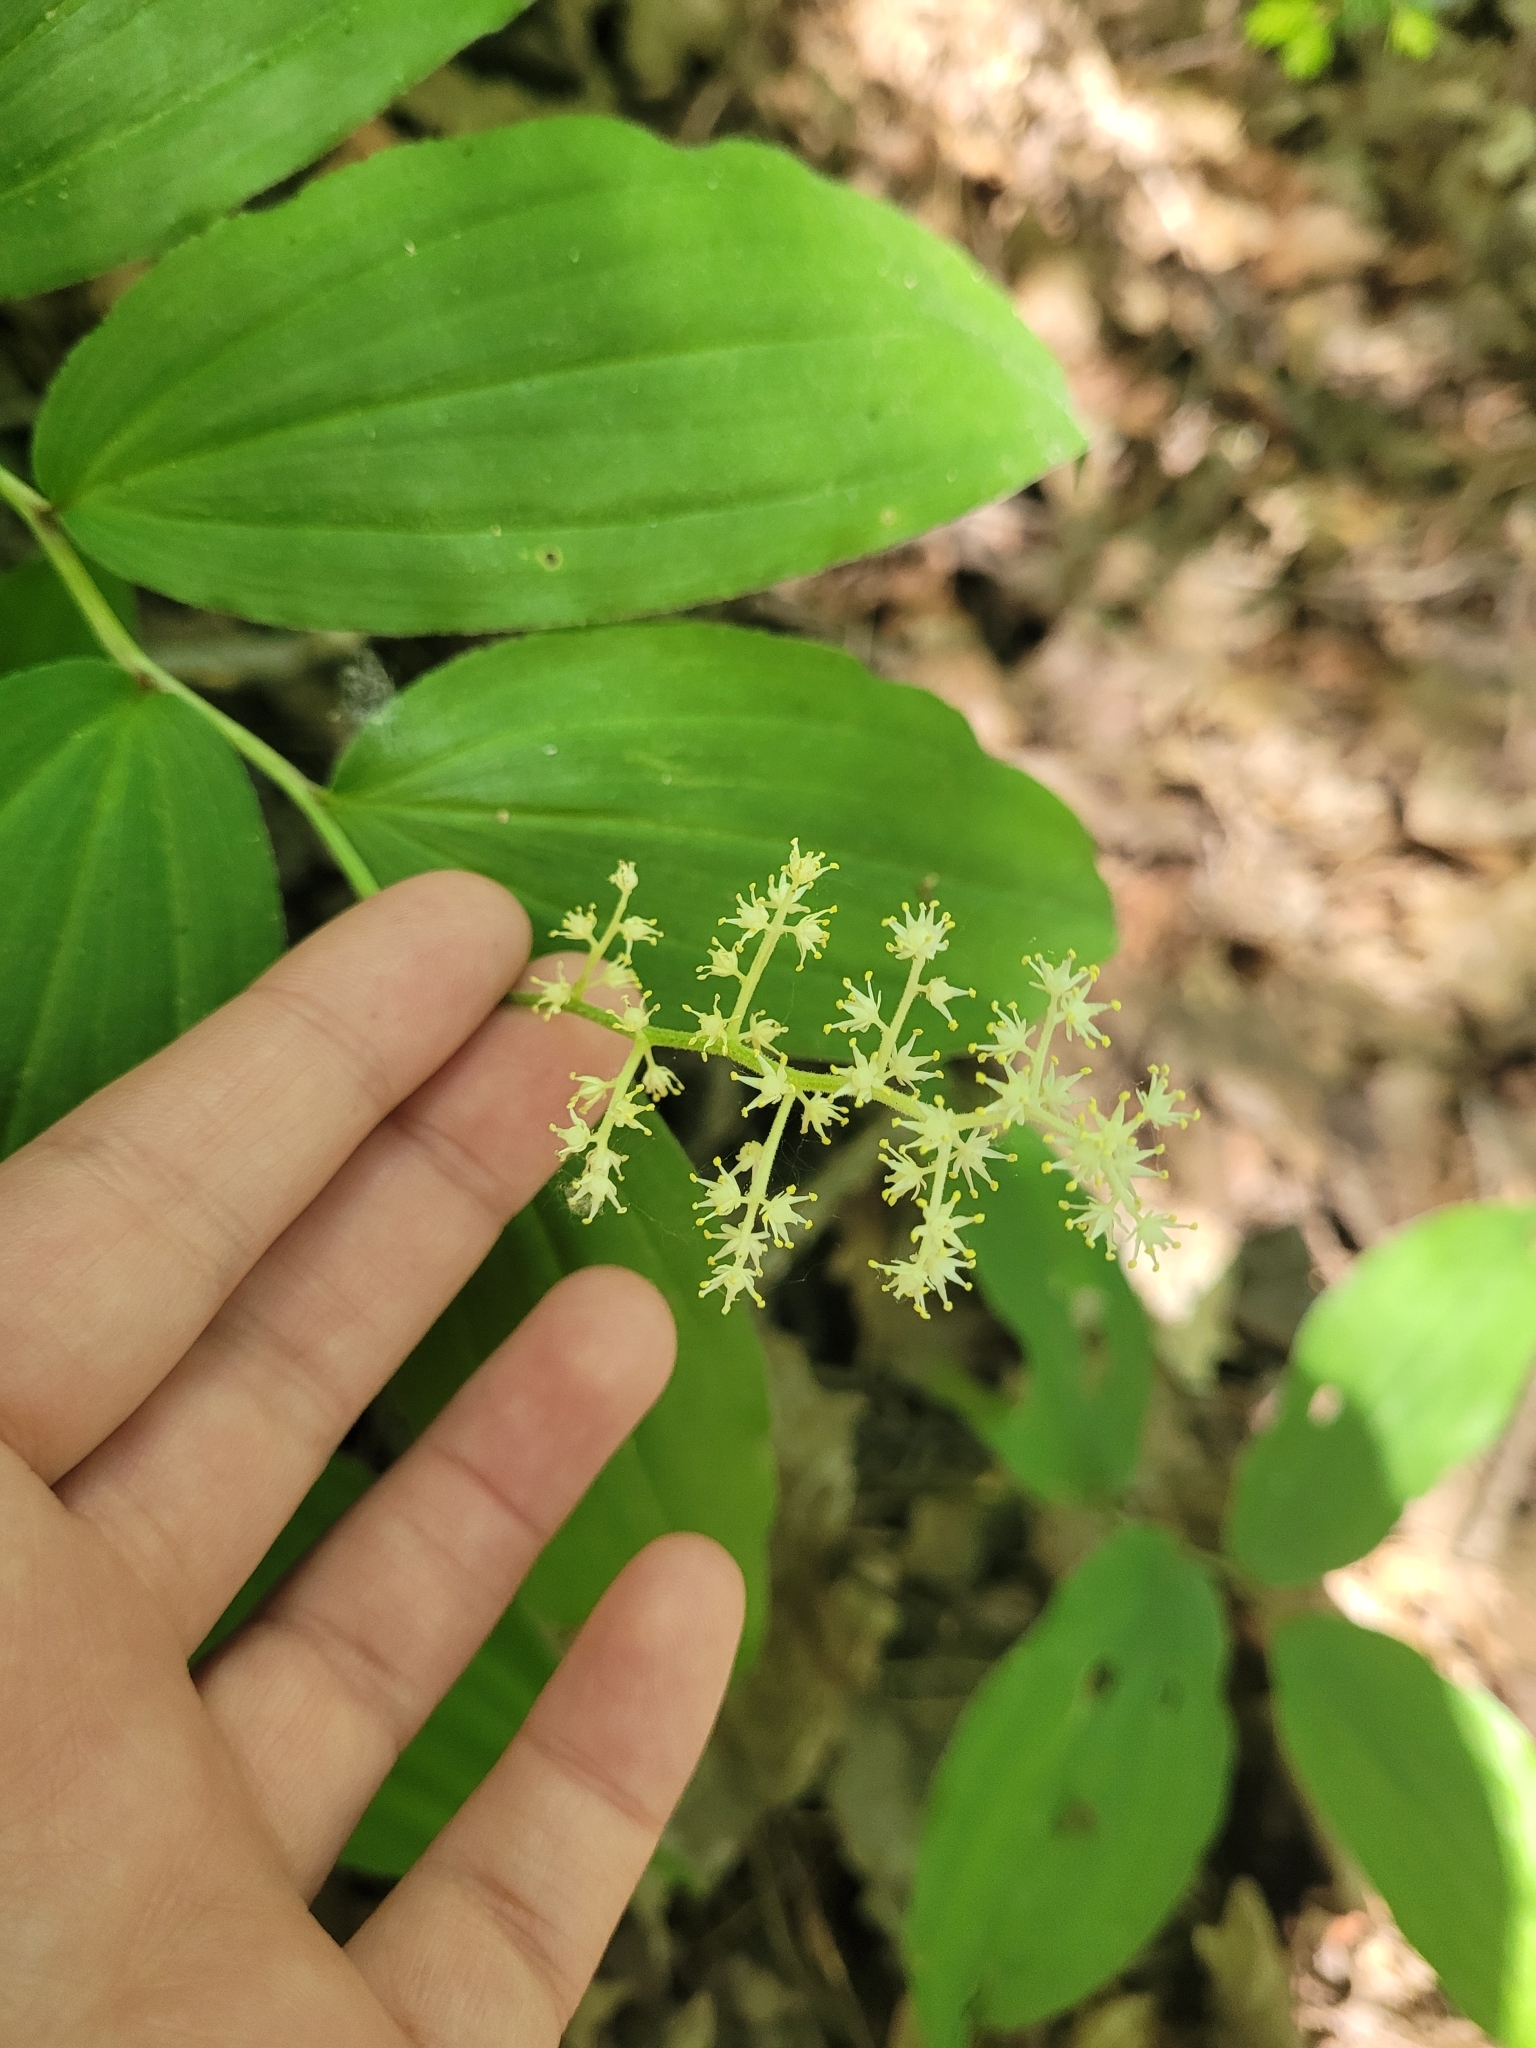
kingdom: Plantae
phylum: Tracheophyta
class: Liliopsida
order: Asparagales
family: Asparagaceae
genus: Maianthemum
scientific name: Maianthemum racemosum
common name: False spikenard
